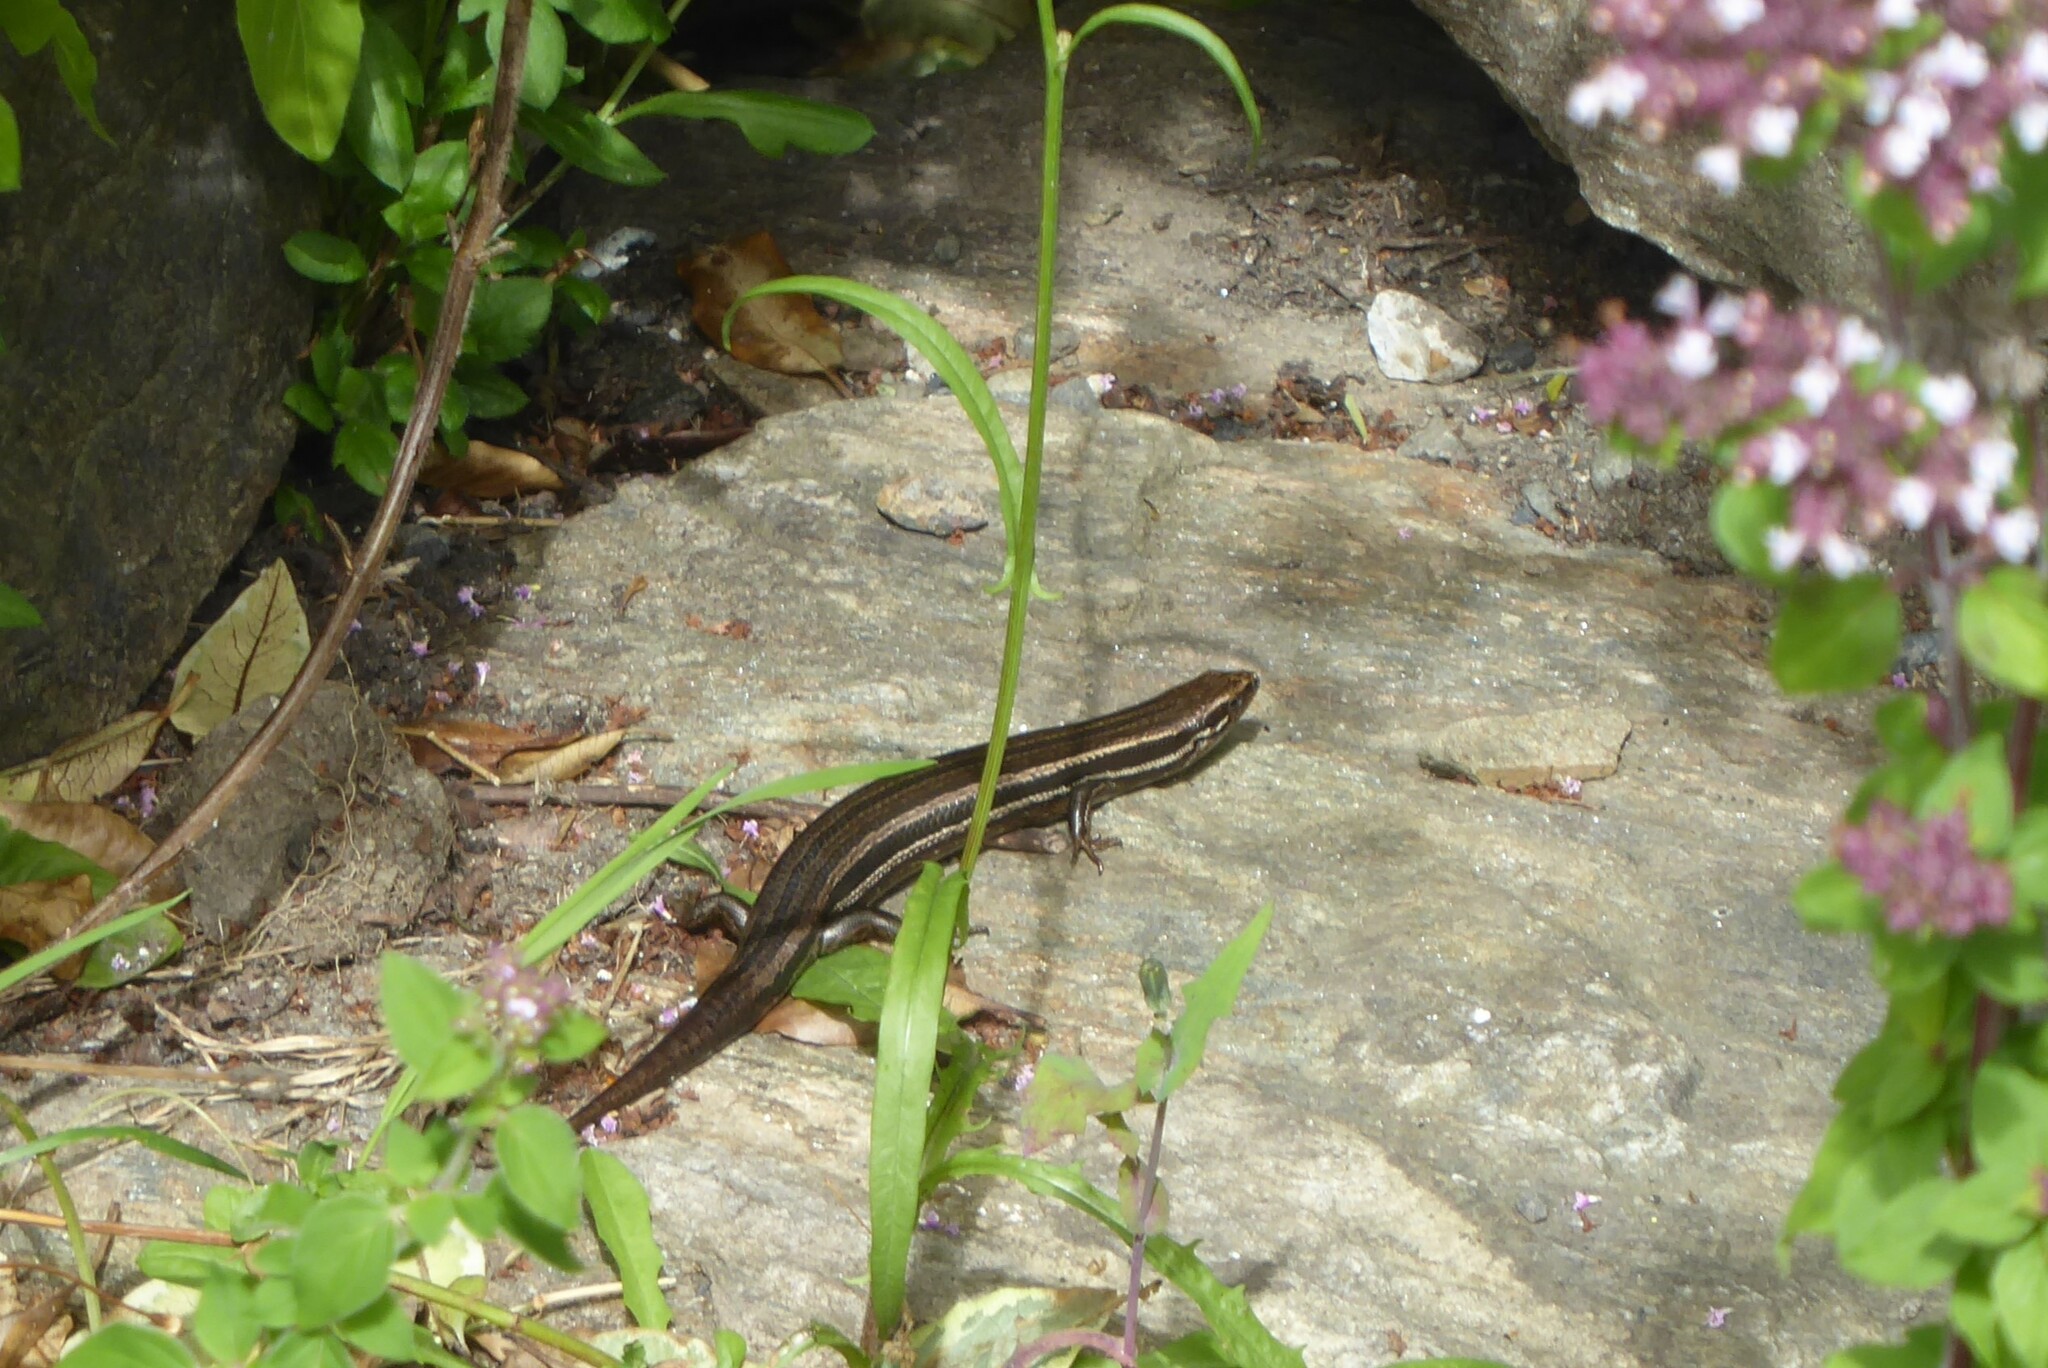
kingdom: Animalia
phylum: Chordata
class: Squamata
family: Scincidae
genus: Oligosoma
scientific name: Oligosoma polychroma
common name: Common new zealand skink
